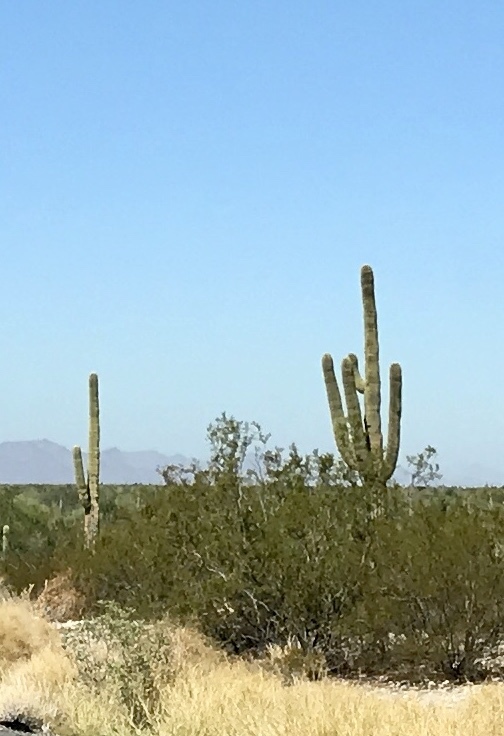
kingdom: Plantae
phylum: Tracheophyta
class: Magnoliopsida
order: Caryophyllales
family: Cactaceae
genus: Carnegiea
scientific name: Carnegiea gigantea
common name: Saguaro
